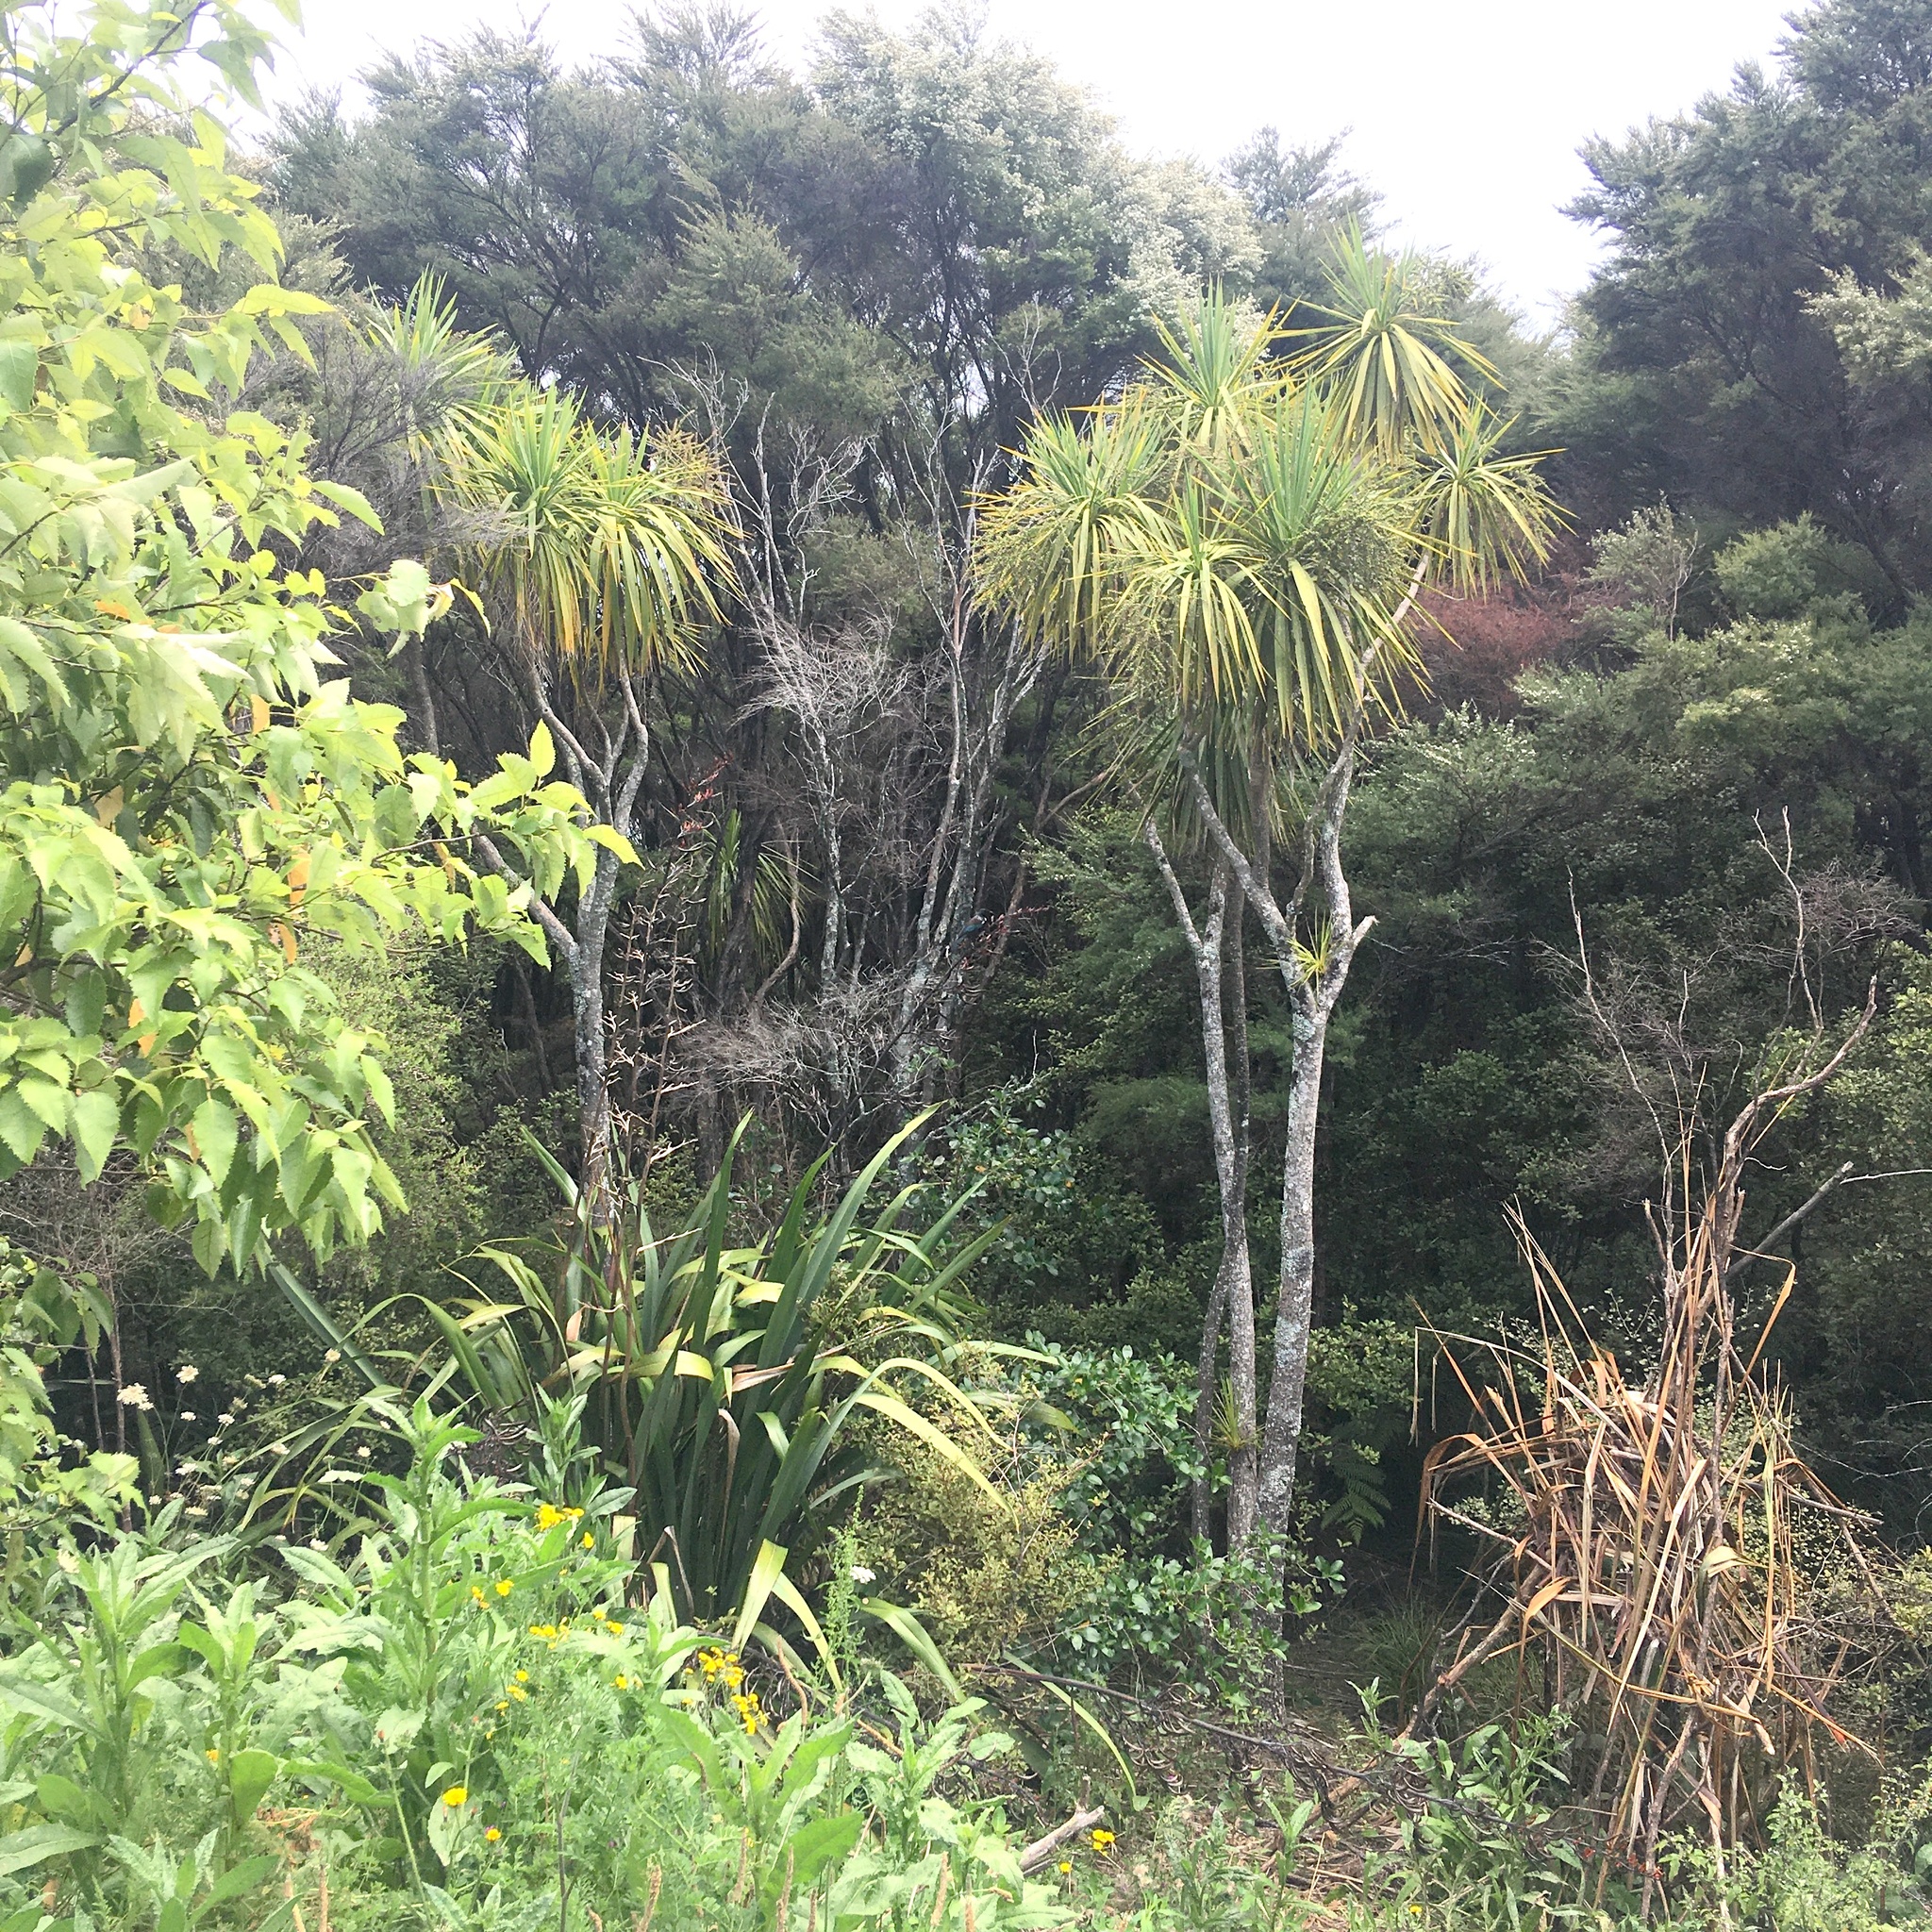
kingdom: Plantae
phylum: Tracheophyta
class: Liliopsida
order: Asparagales
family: Asparagaceae
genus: Cordyline
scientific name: Cordyline australis
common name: Cabbage-palm
